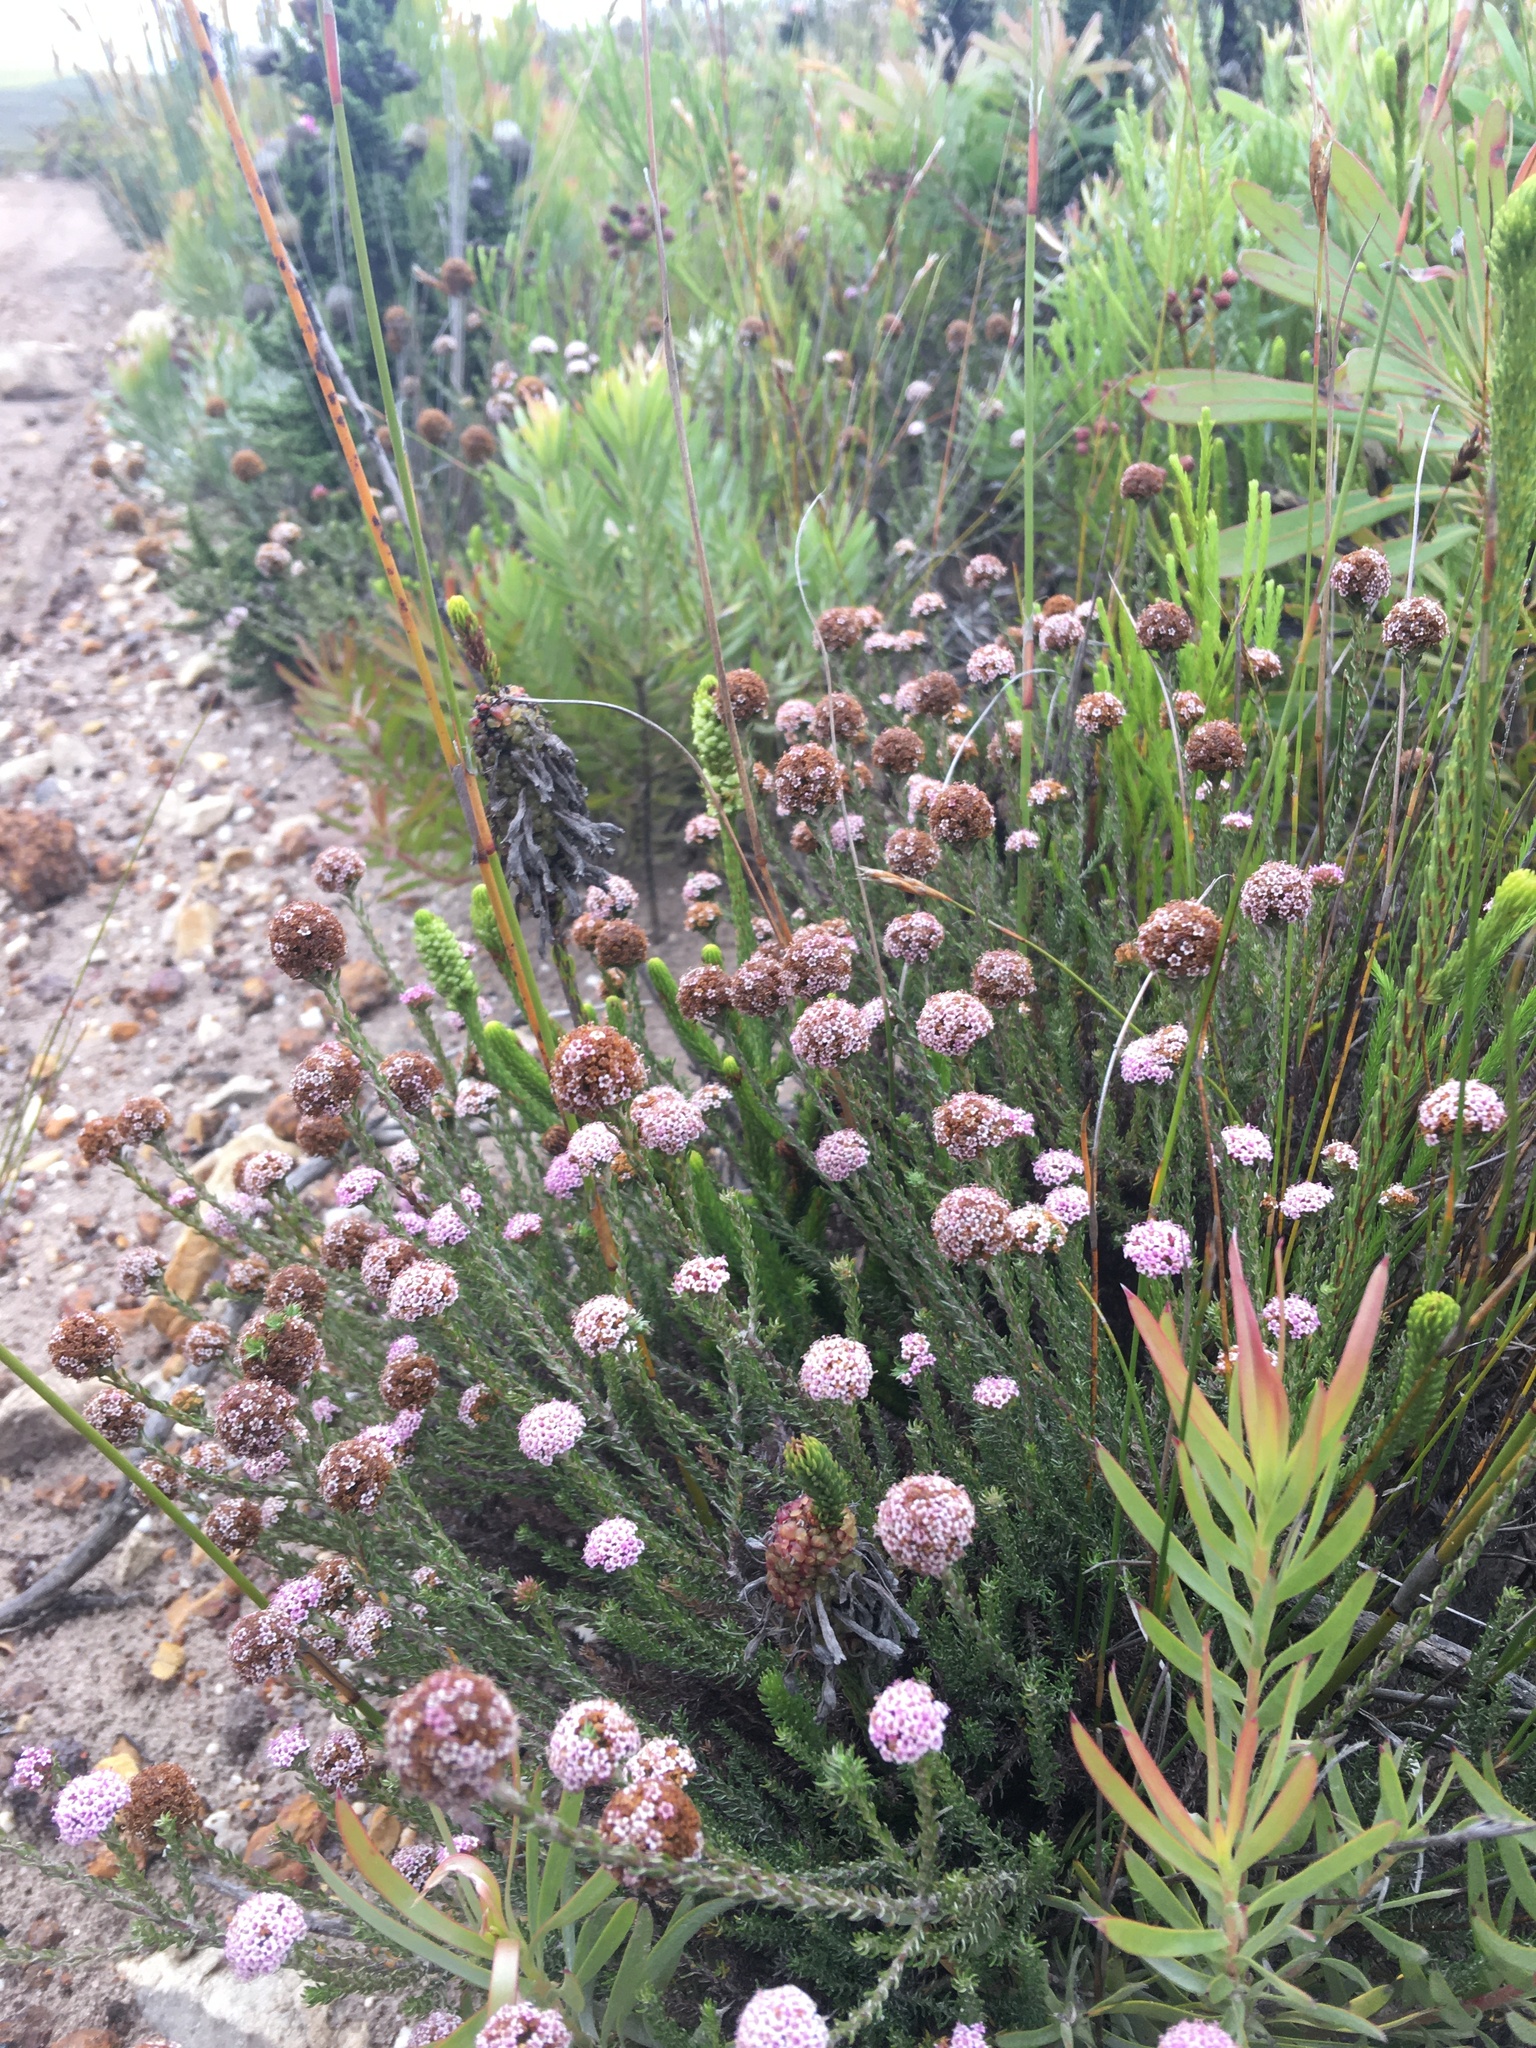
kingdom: Plantae
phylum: Tracheophyta
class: Magnoliopsida
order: Asterales
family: Asteraceae
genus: Stoebe
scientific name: Stoebe capitata
